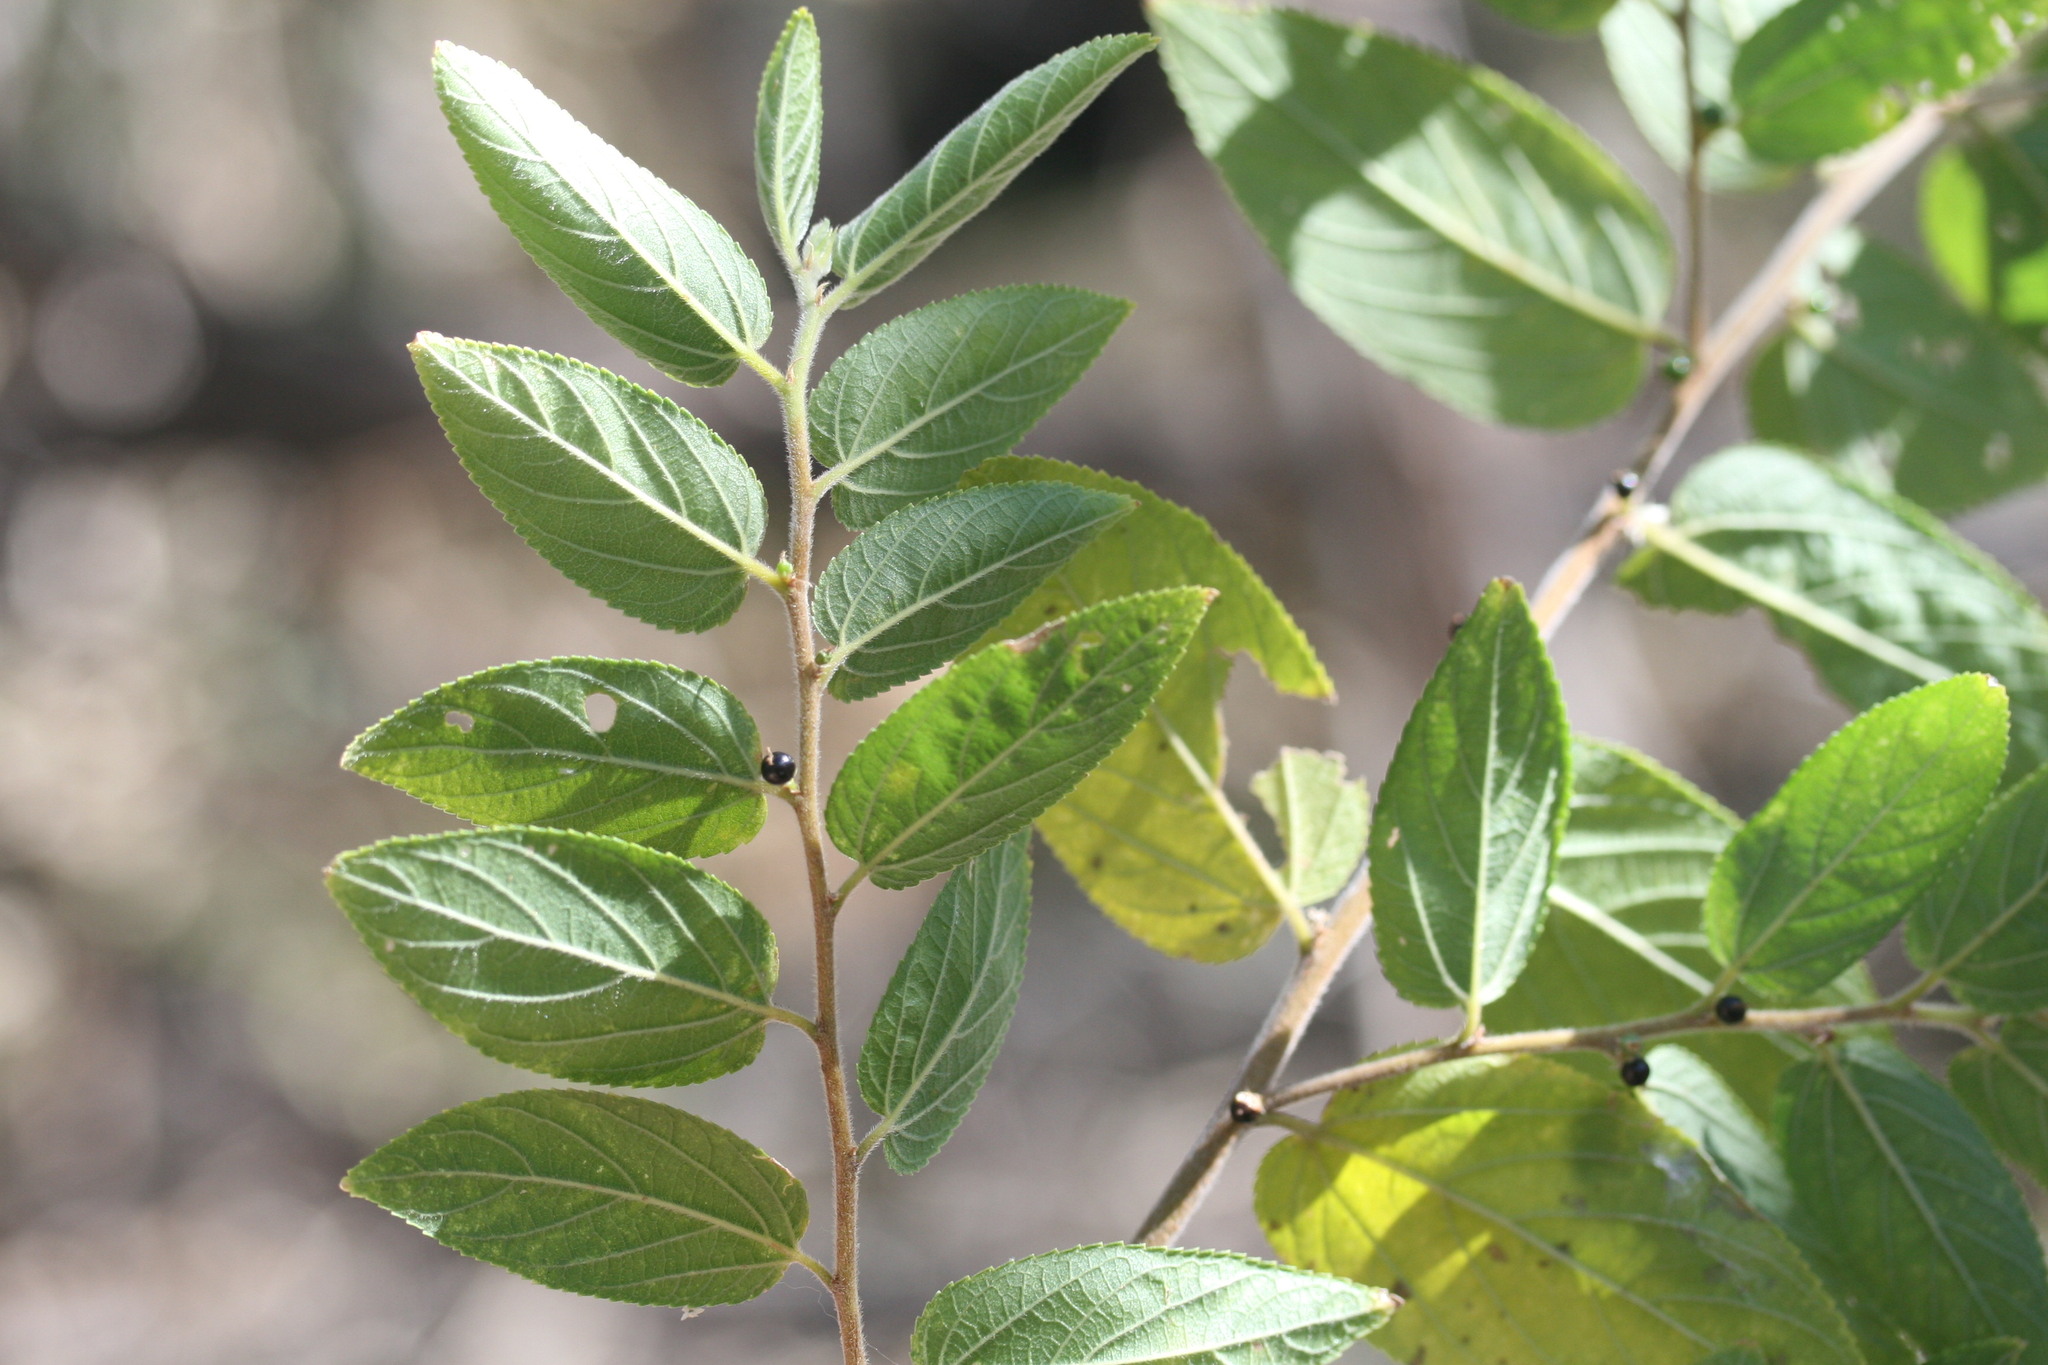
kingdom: Plantae
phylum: Tracheophyta
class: Magnoliopsida
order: Rosales
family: Cannabaceae
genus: Trema
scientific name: Trema tomentosum
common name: Peach-leaf-poisonbush
